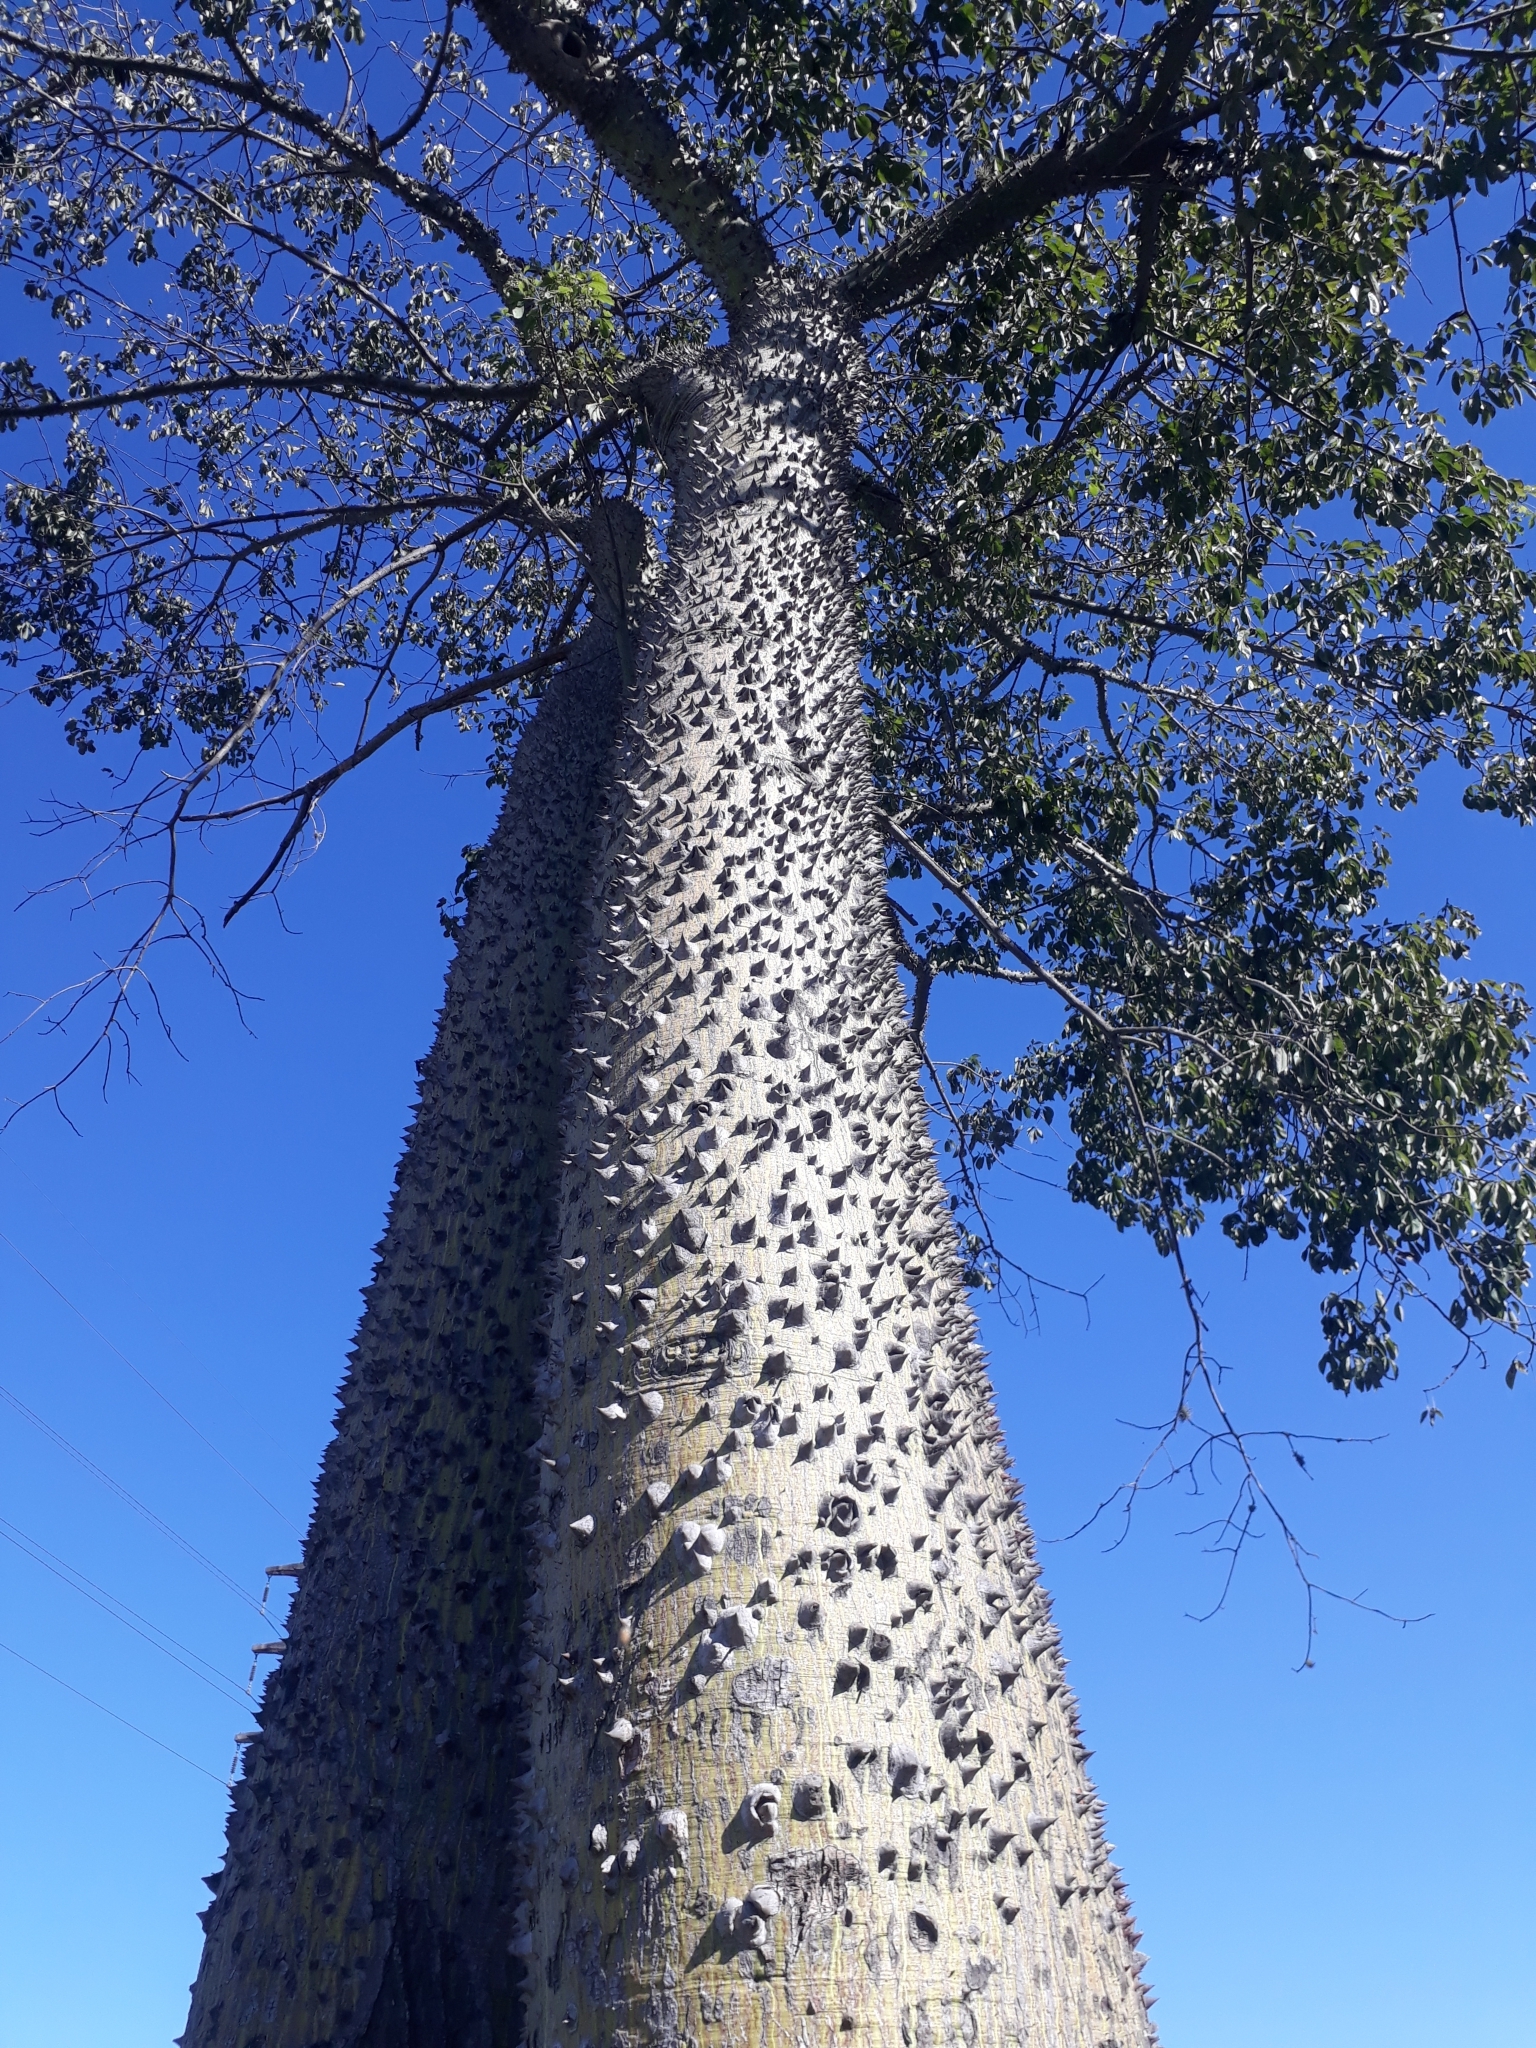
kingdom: Plantae
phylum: Tracheophyta
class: Magnoliopsida
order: Malvales
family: Malvaceae
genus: Ceiba
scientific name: Ceiba speciosa
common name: Silk-floss tree
